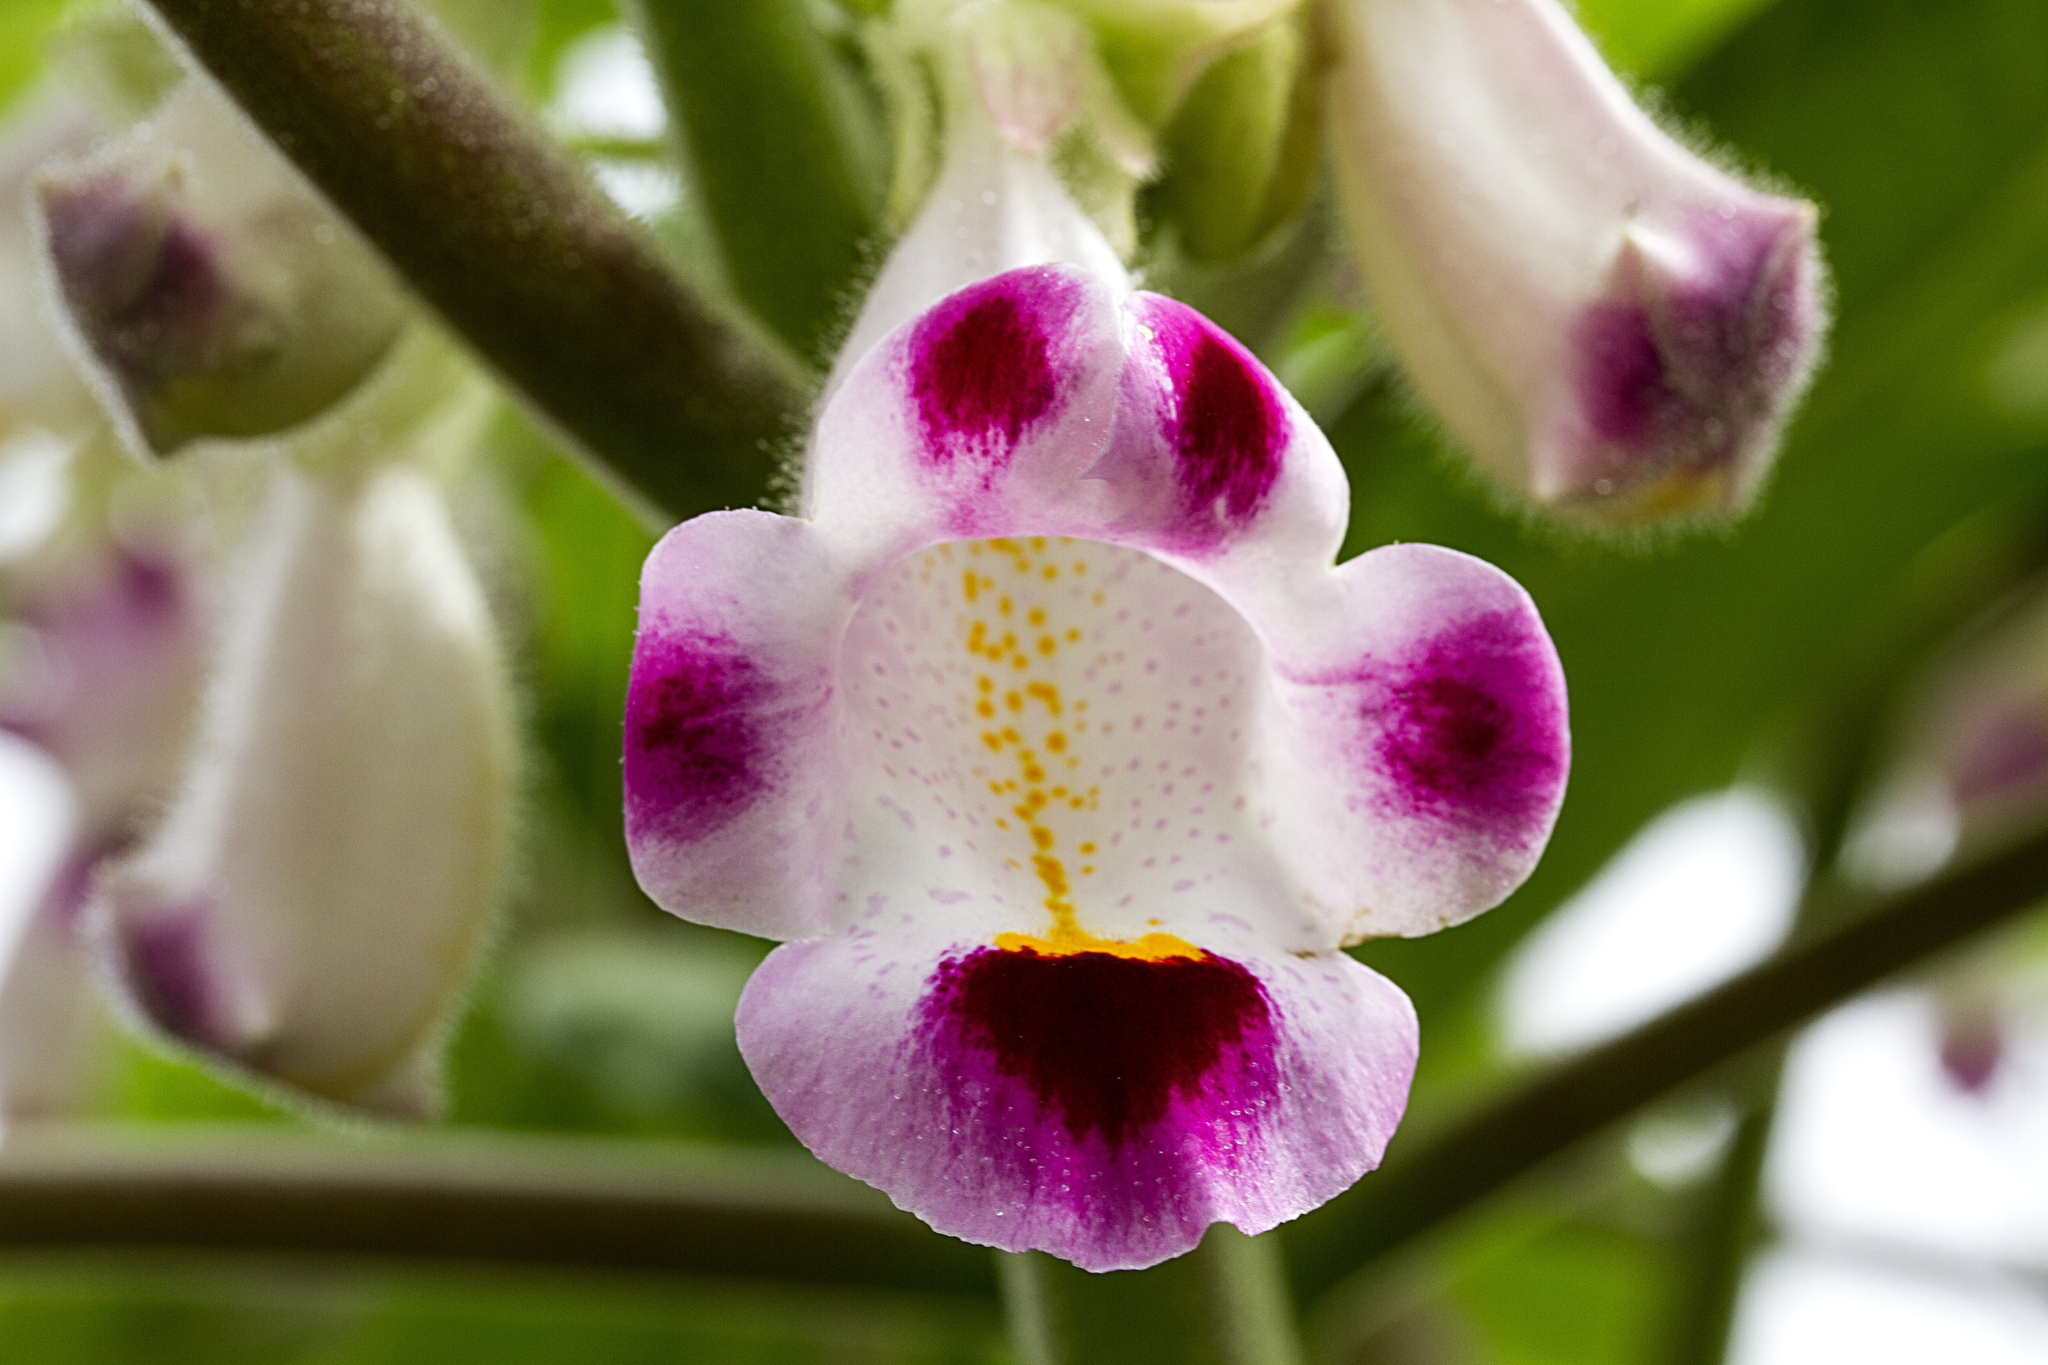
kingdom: Plantae
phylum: Tracheophyta
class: Magnoliopsida
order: Lamiales
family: Martyniaceae
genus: Martynia
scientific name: Martynia annua
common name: Tiger's-claw
